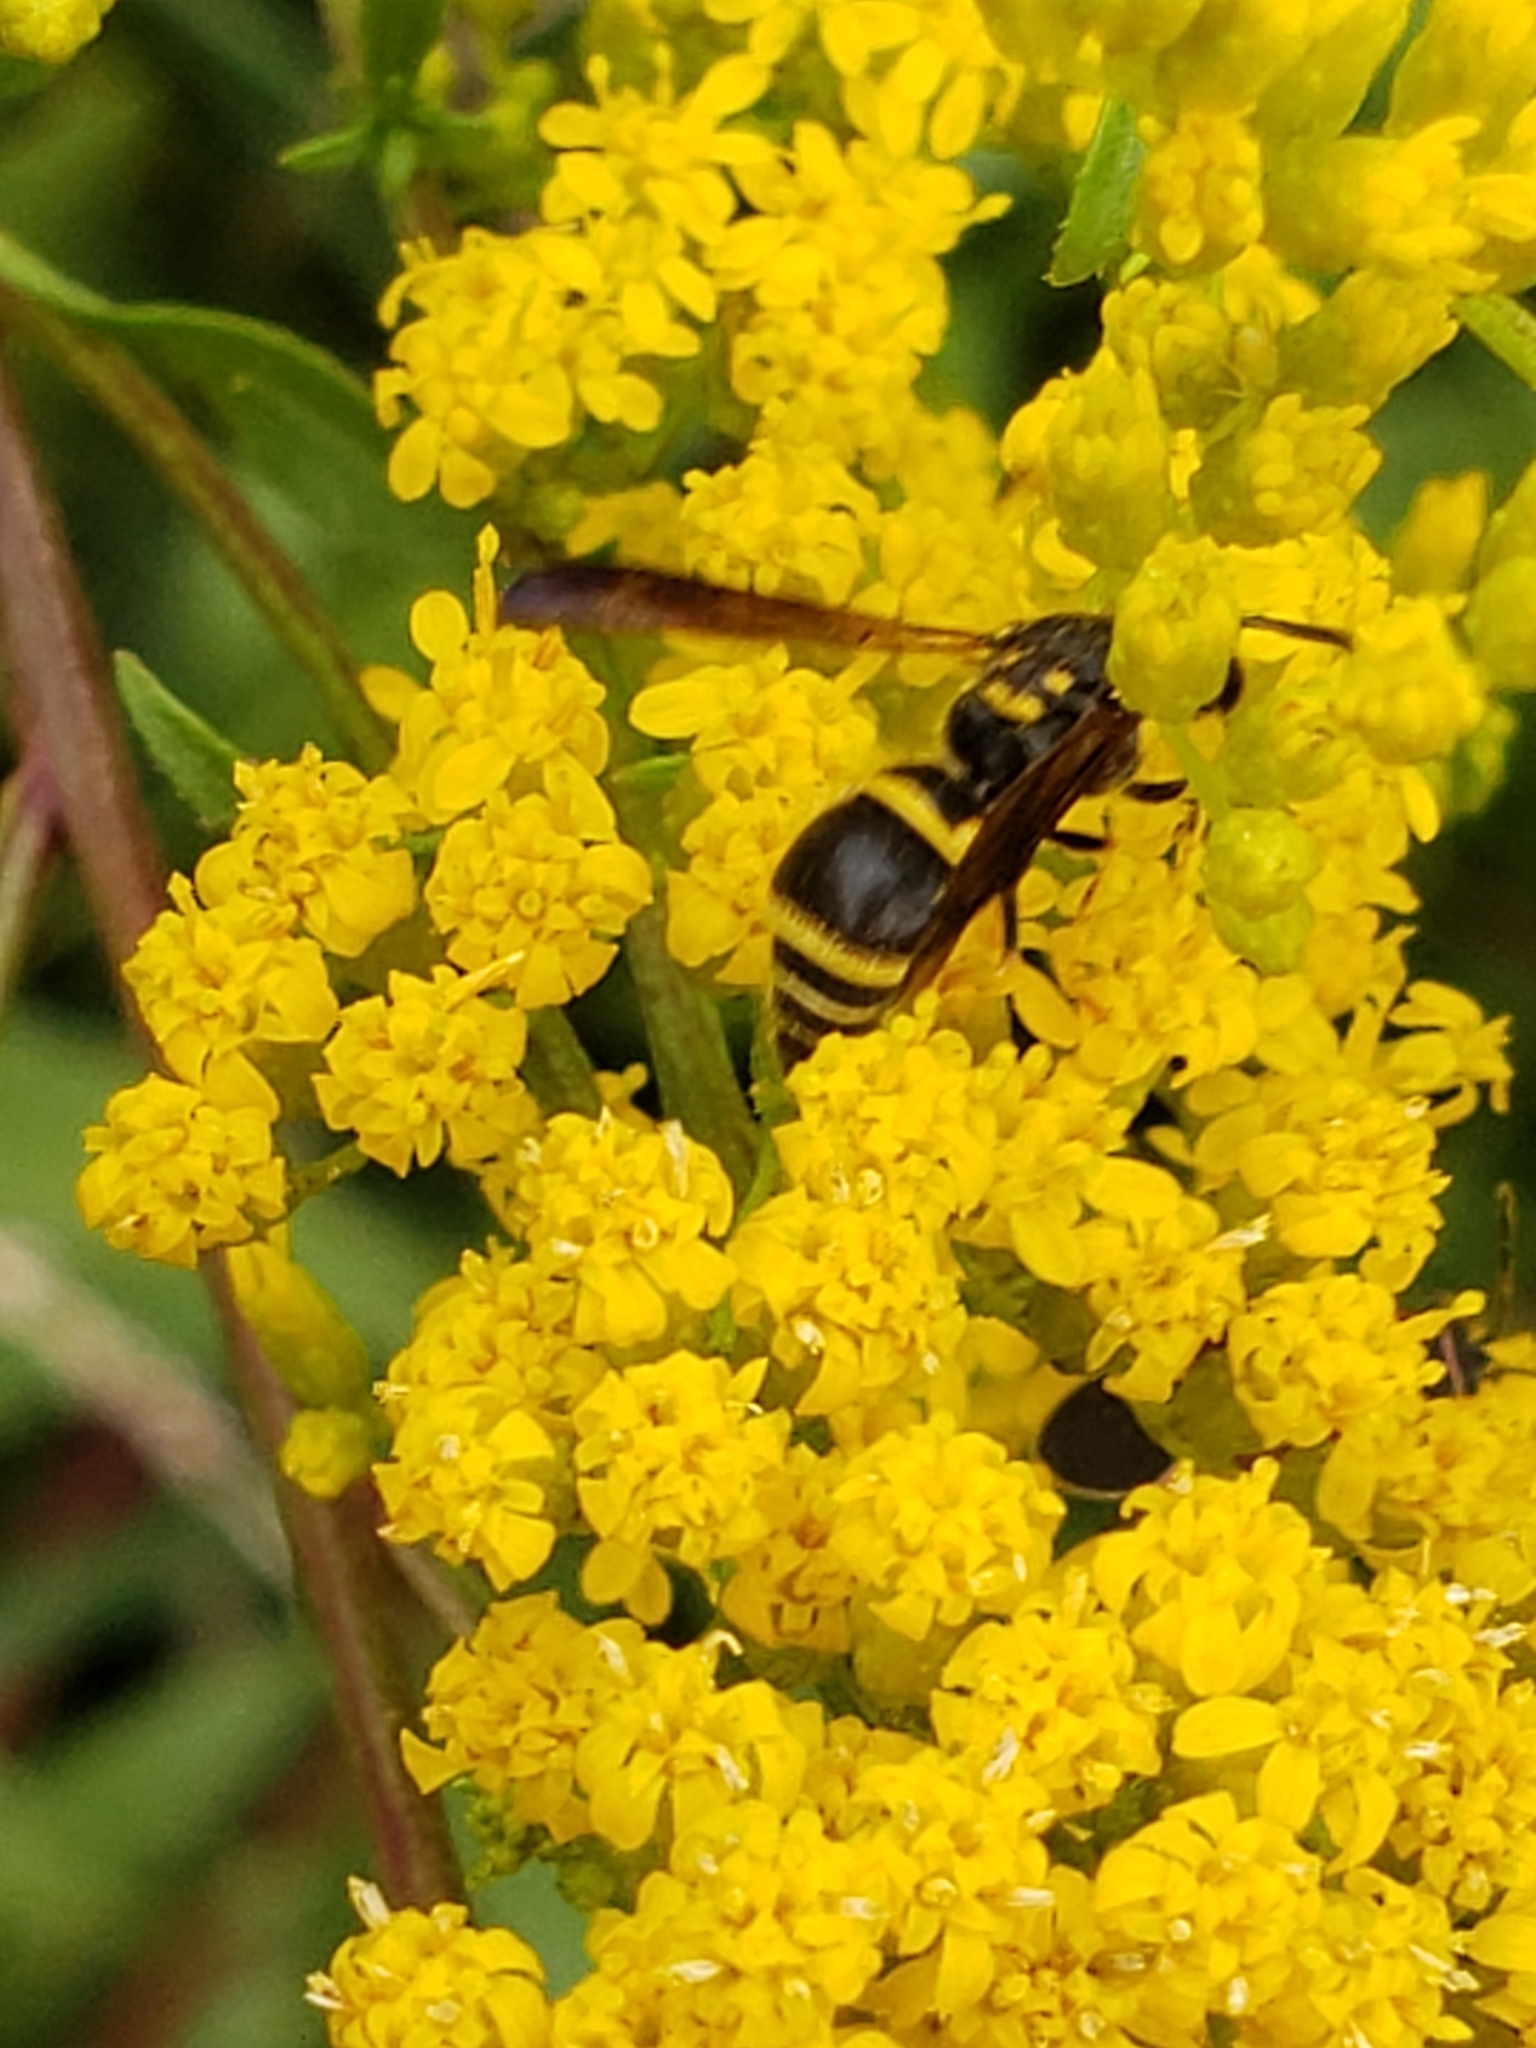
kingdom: Animalia
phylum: Arthropoda
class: Insecta
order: Hymenoptera
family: Vespidae
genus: Ancistrocerus
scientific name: Ancistrocerus campestris
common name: Smiling mason wasp
